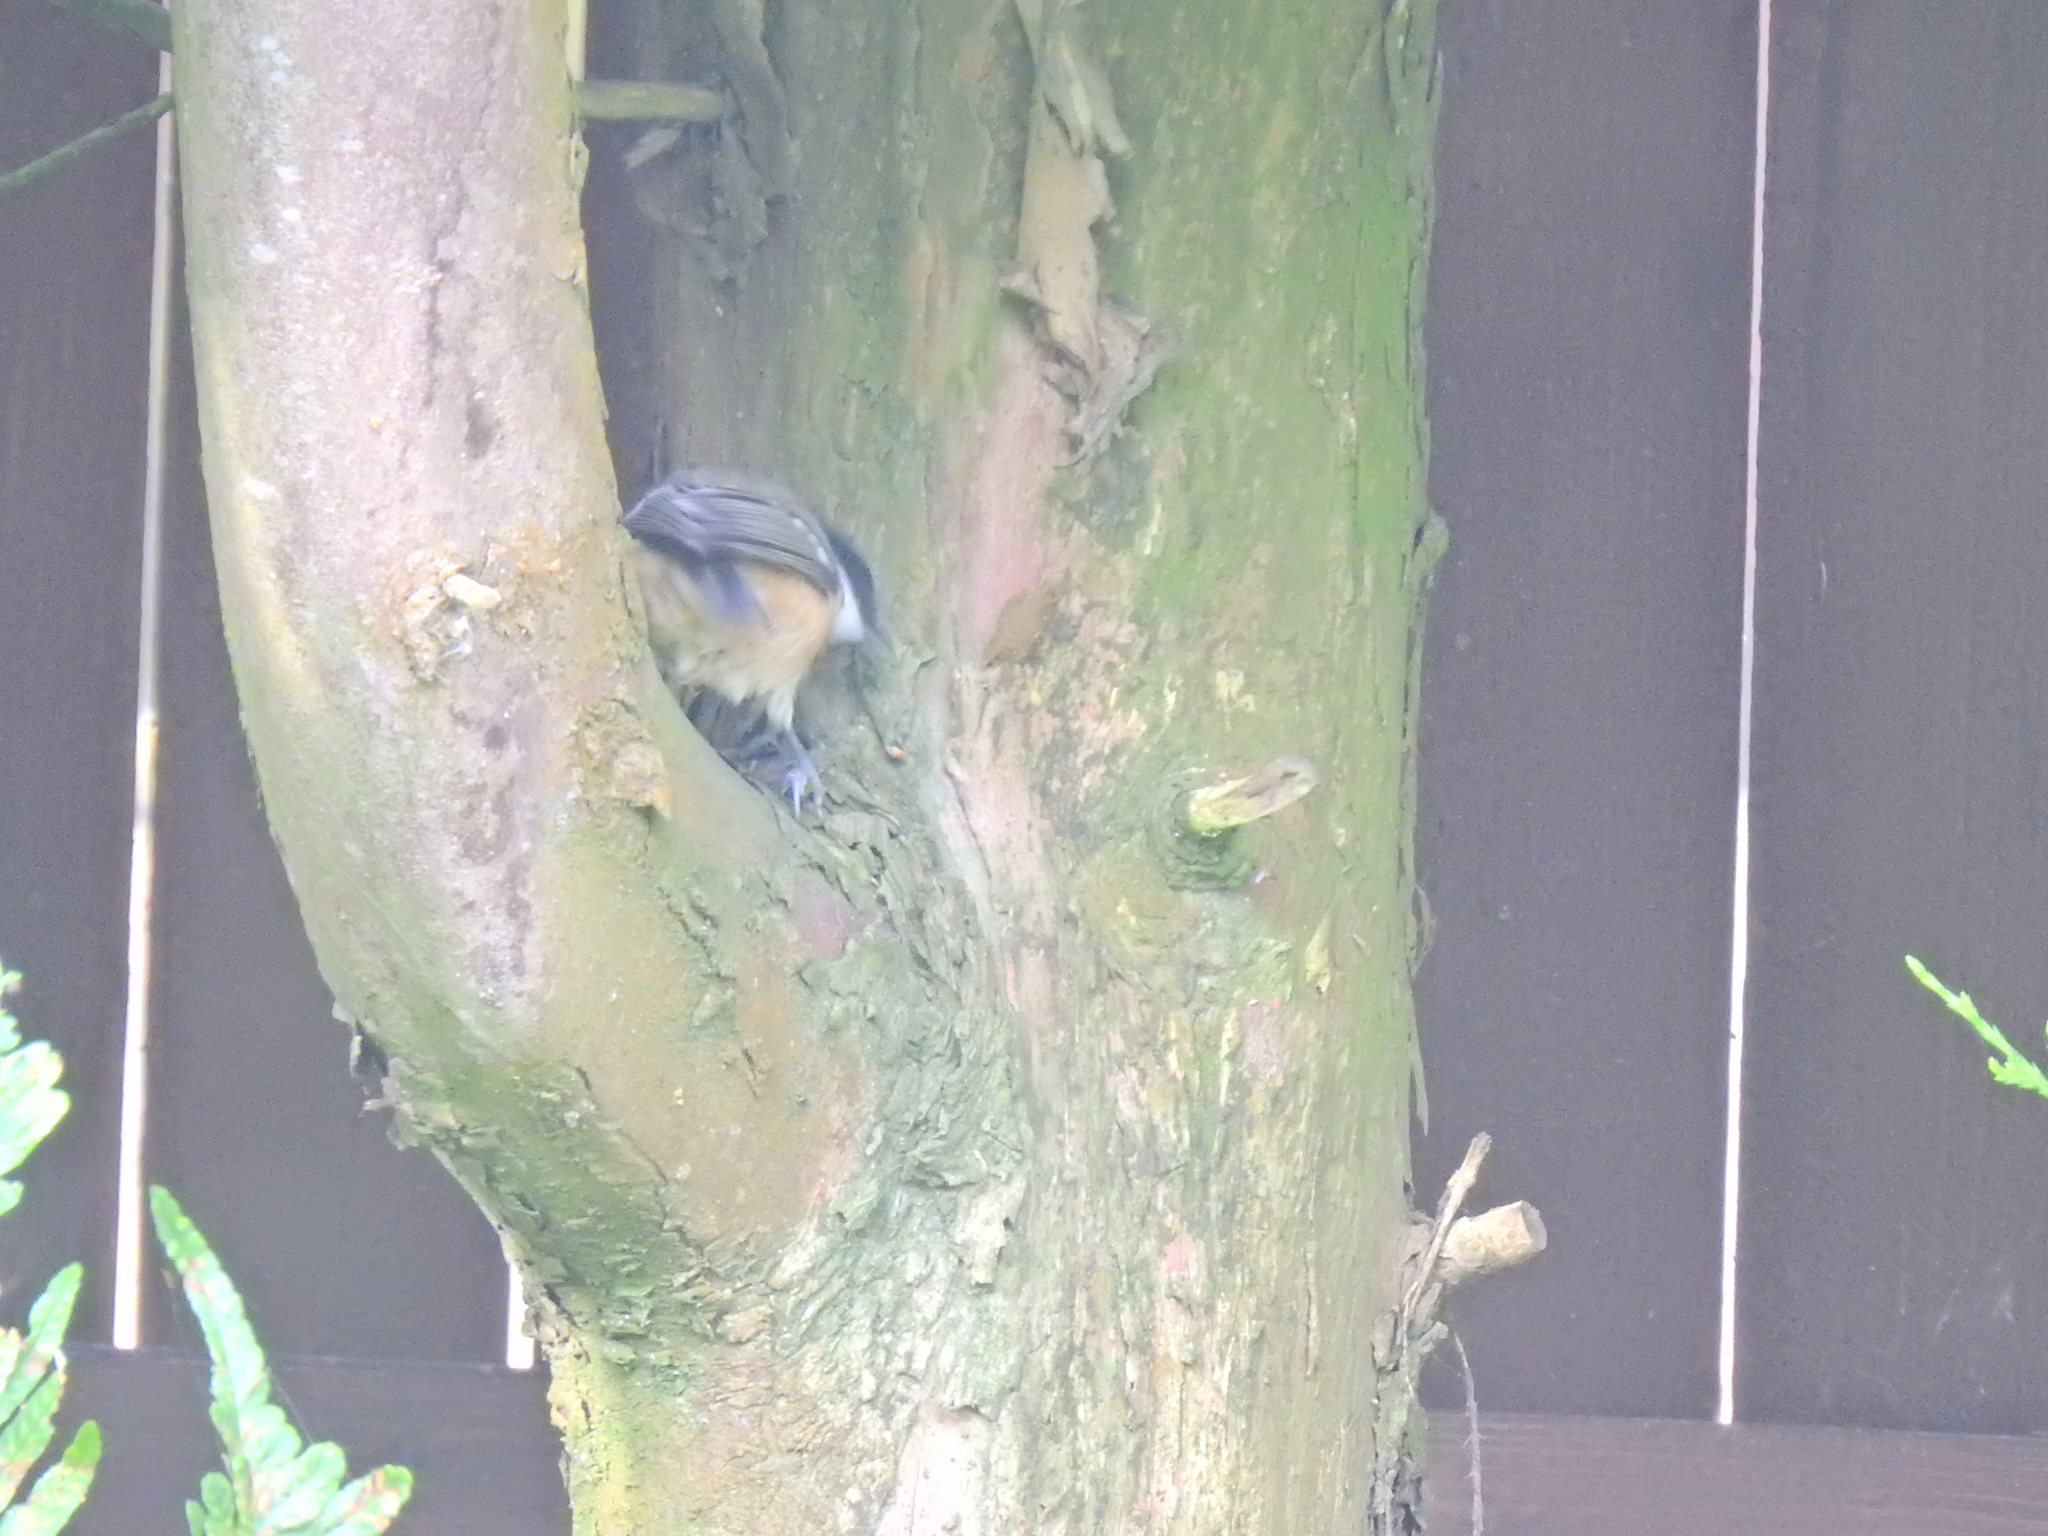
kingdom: Animalia
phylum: Chordata
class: Aves
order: Passeriformes
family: Paridae
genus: Periparus
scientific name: Periparus ater
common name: Coal tit
